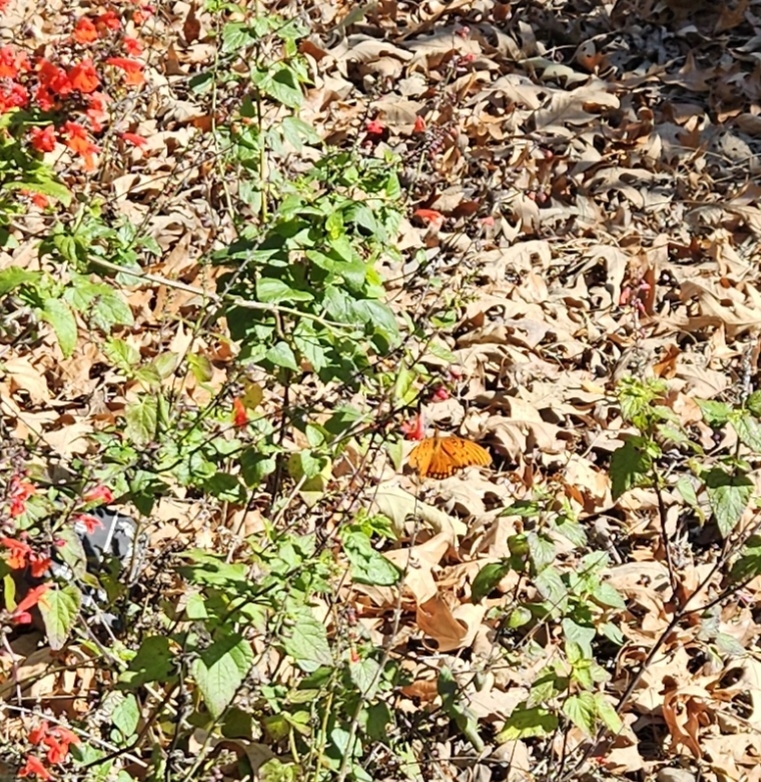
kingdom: Animalia
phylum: Arthropoda
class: Insecta
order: Lepidoptera
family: Nymphalidae
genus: Dione
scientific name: Dione vanillae
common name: Gulf fritillary
